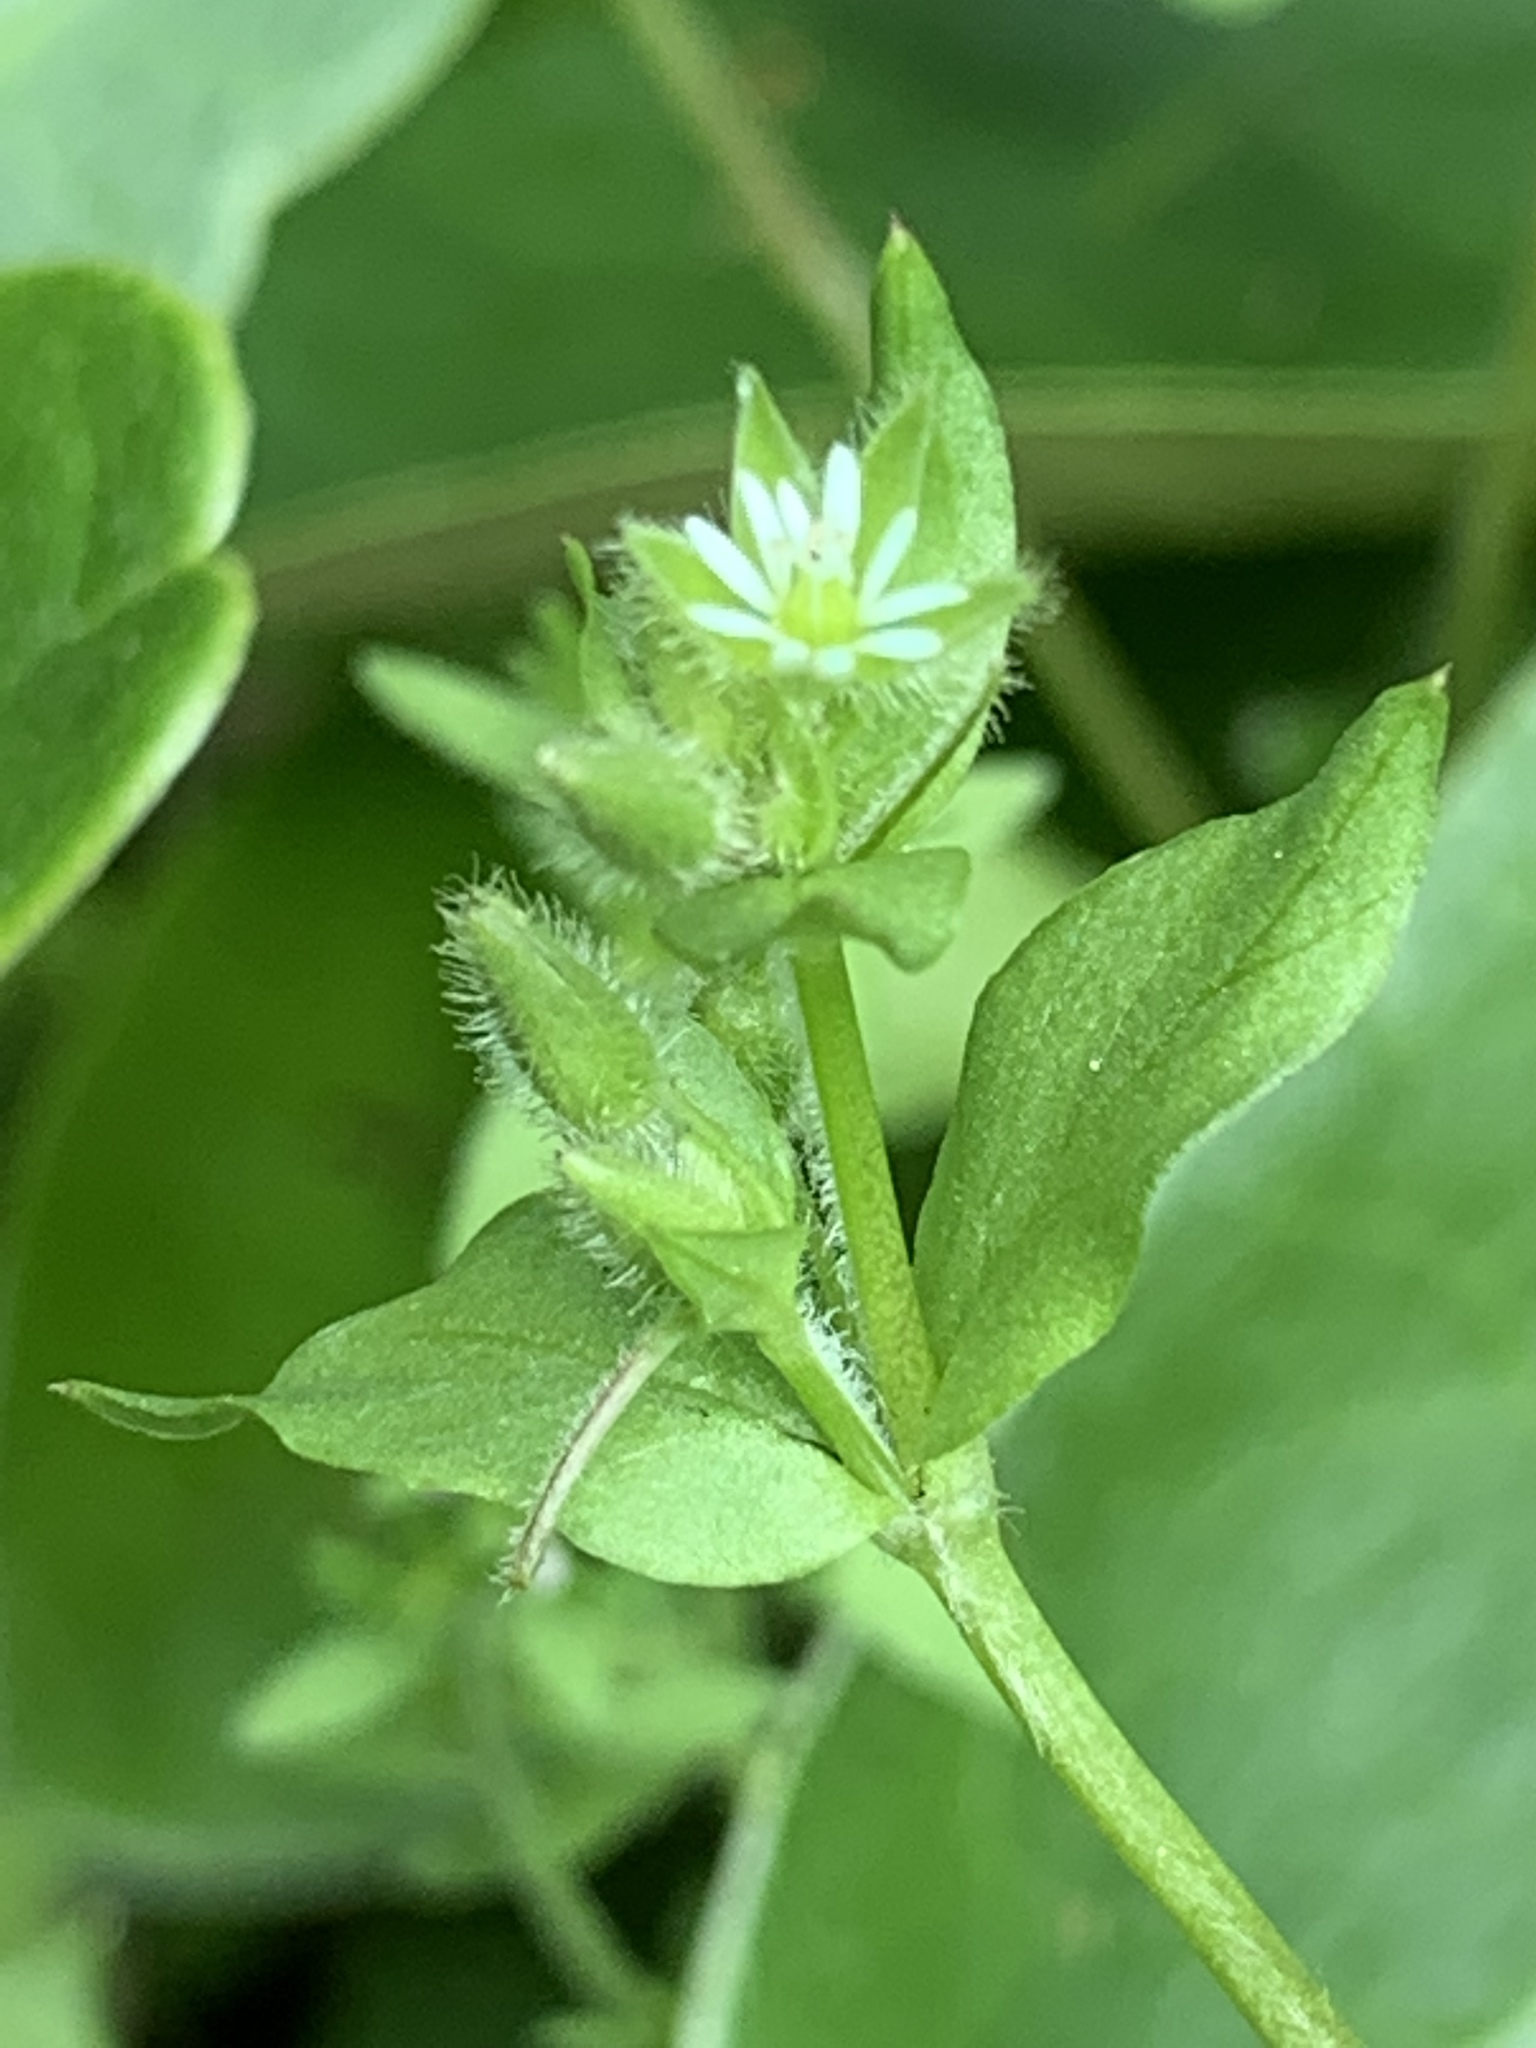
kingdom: Plantae
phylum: Tracheophyta
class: Magnoliopsida
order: Caryophyllales
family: Caryophyllaceae
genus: Stellaria
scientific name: Stellaria media
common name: Common chickweed
